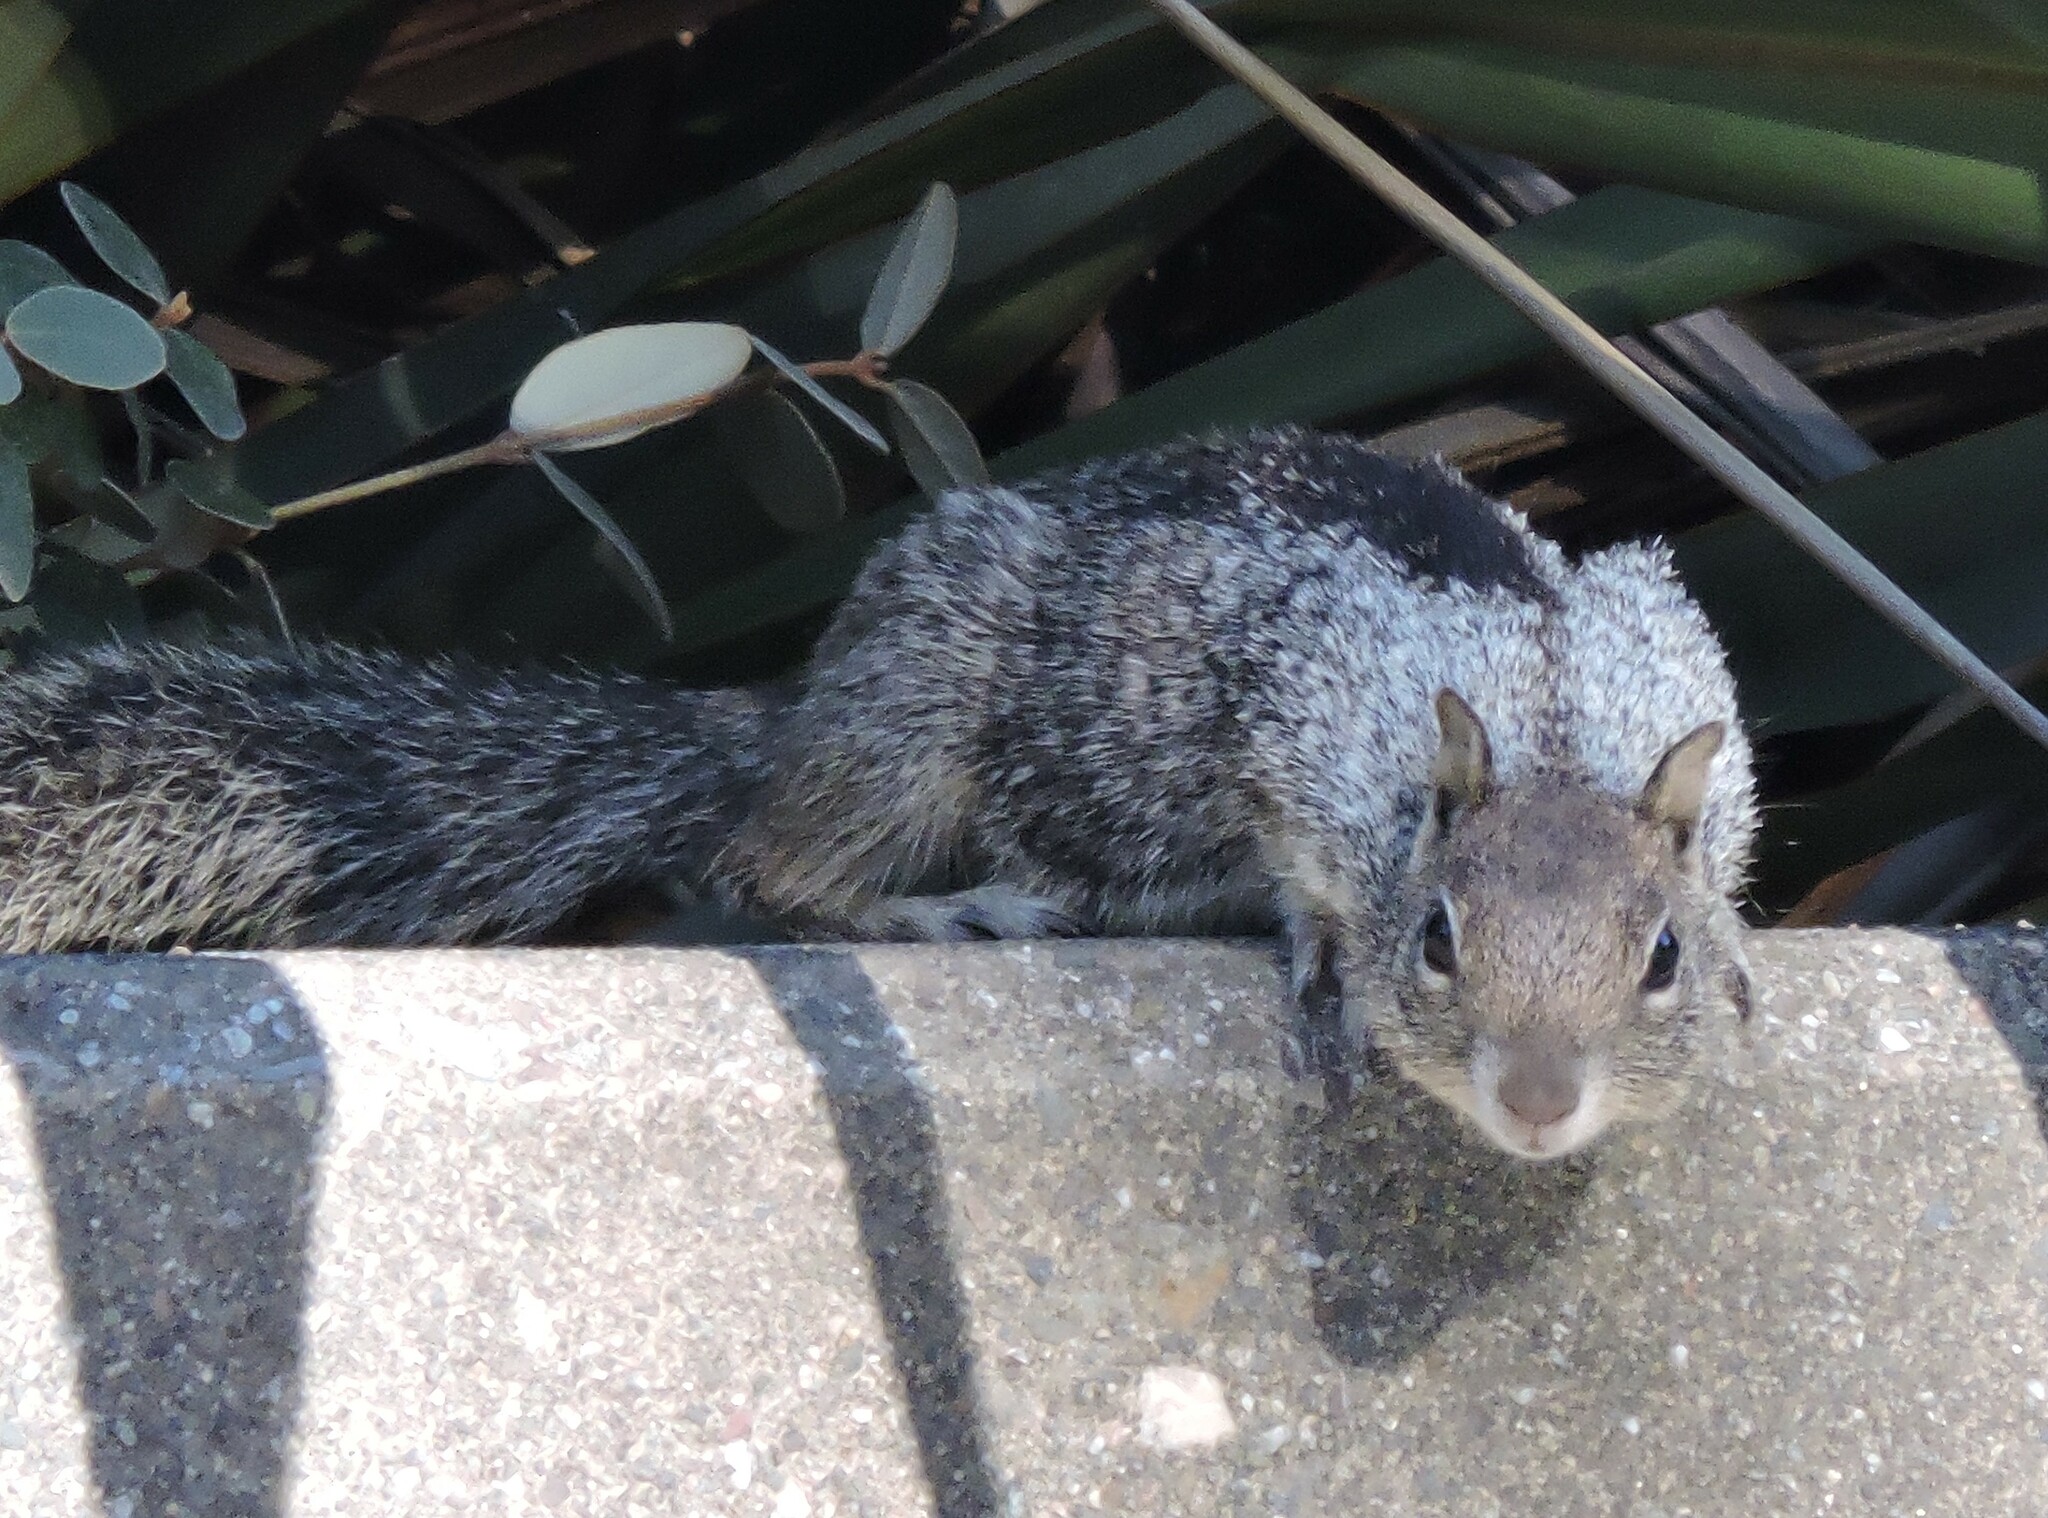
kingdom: Animalia
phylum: Chordata
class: Mammalia
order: Rodentia
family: Sciuridae
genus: Otospermophilus
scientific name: Otospermophilus beecheyi
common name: California ground squirrel
